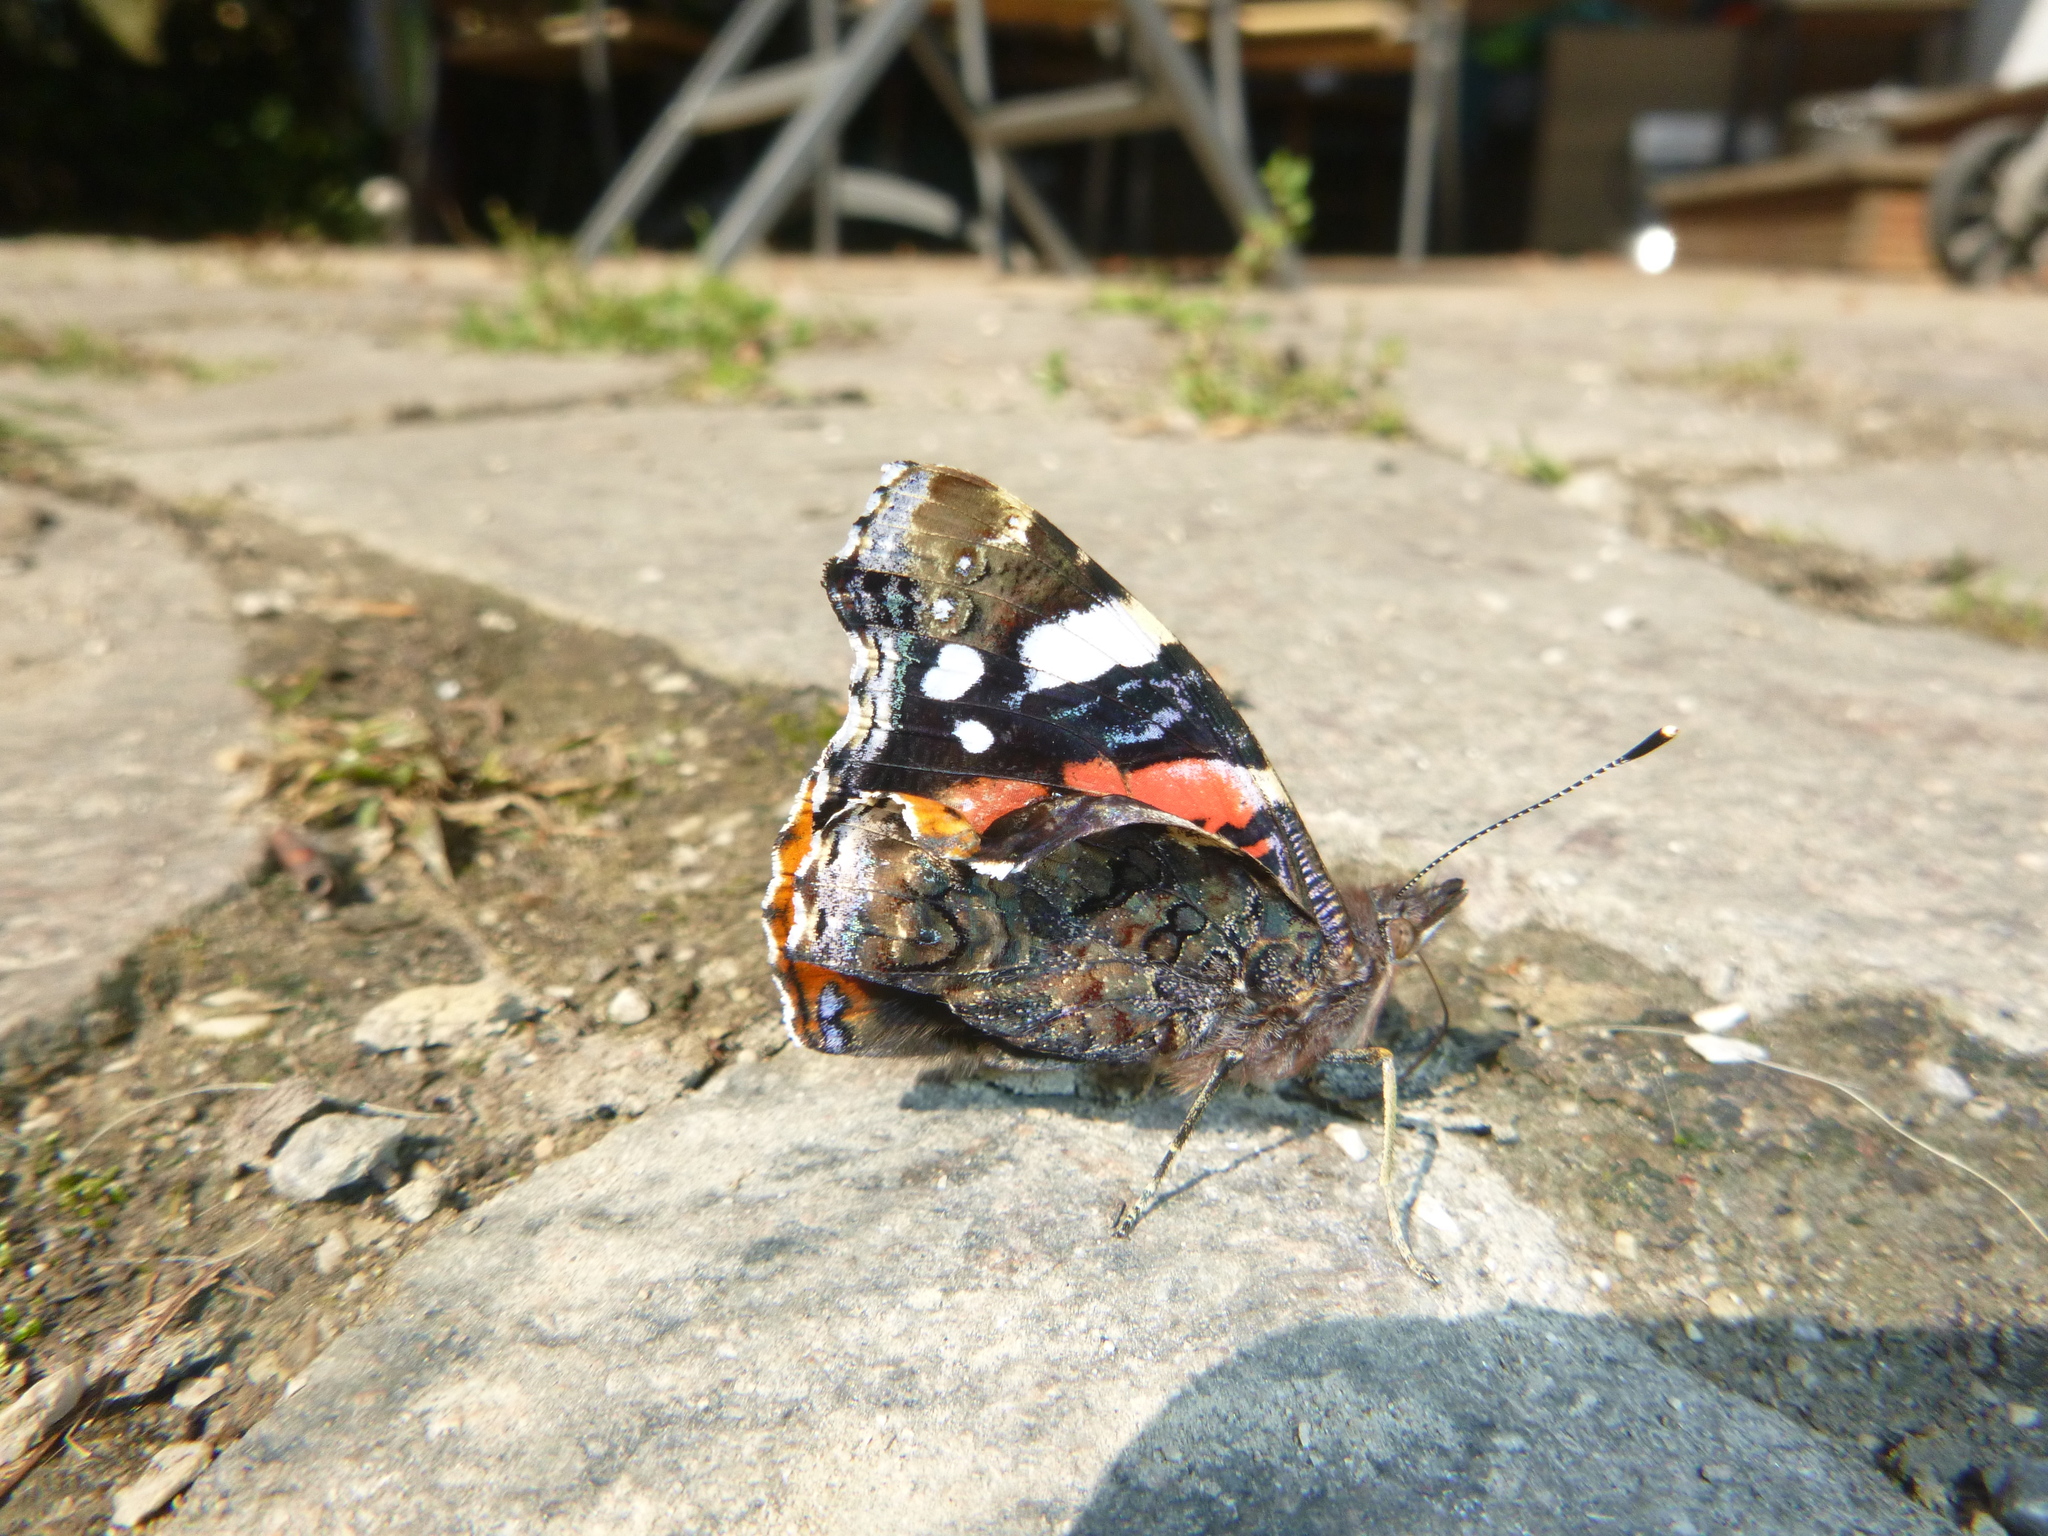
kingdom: Animalia
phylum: Arthropoda
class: Insecta
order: Lepidoptera
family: Nymphalidae
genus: Vanessa
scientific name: Vanessa atalanta
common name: Red admiral
